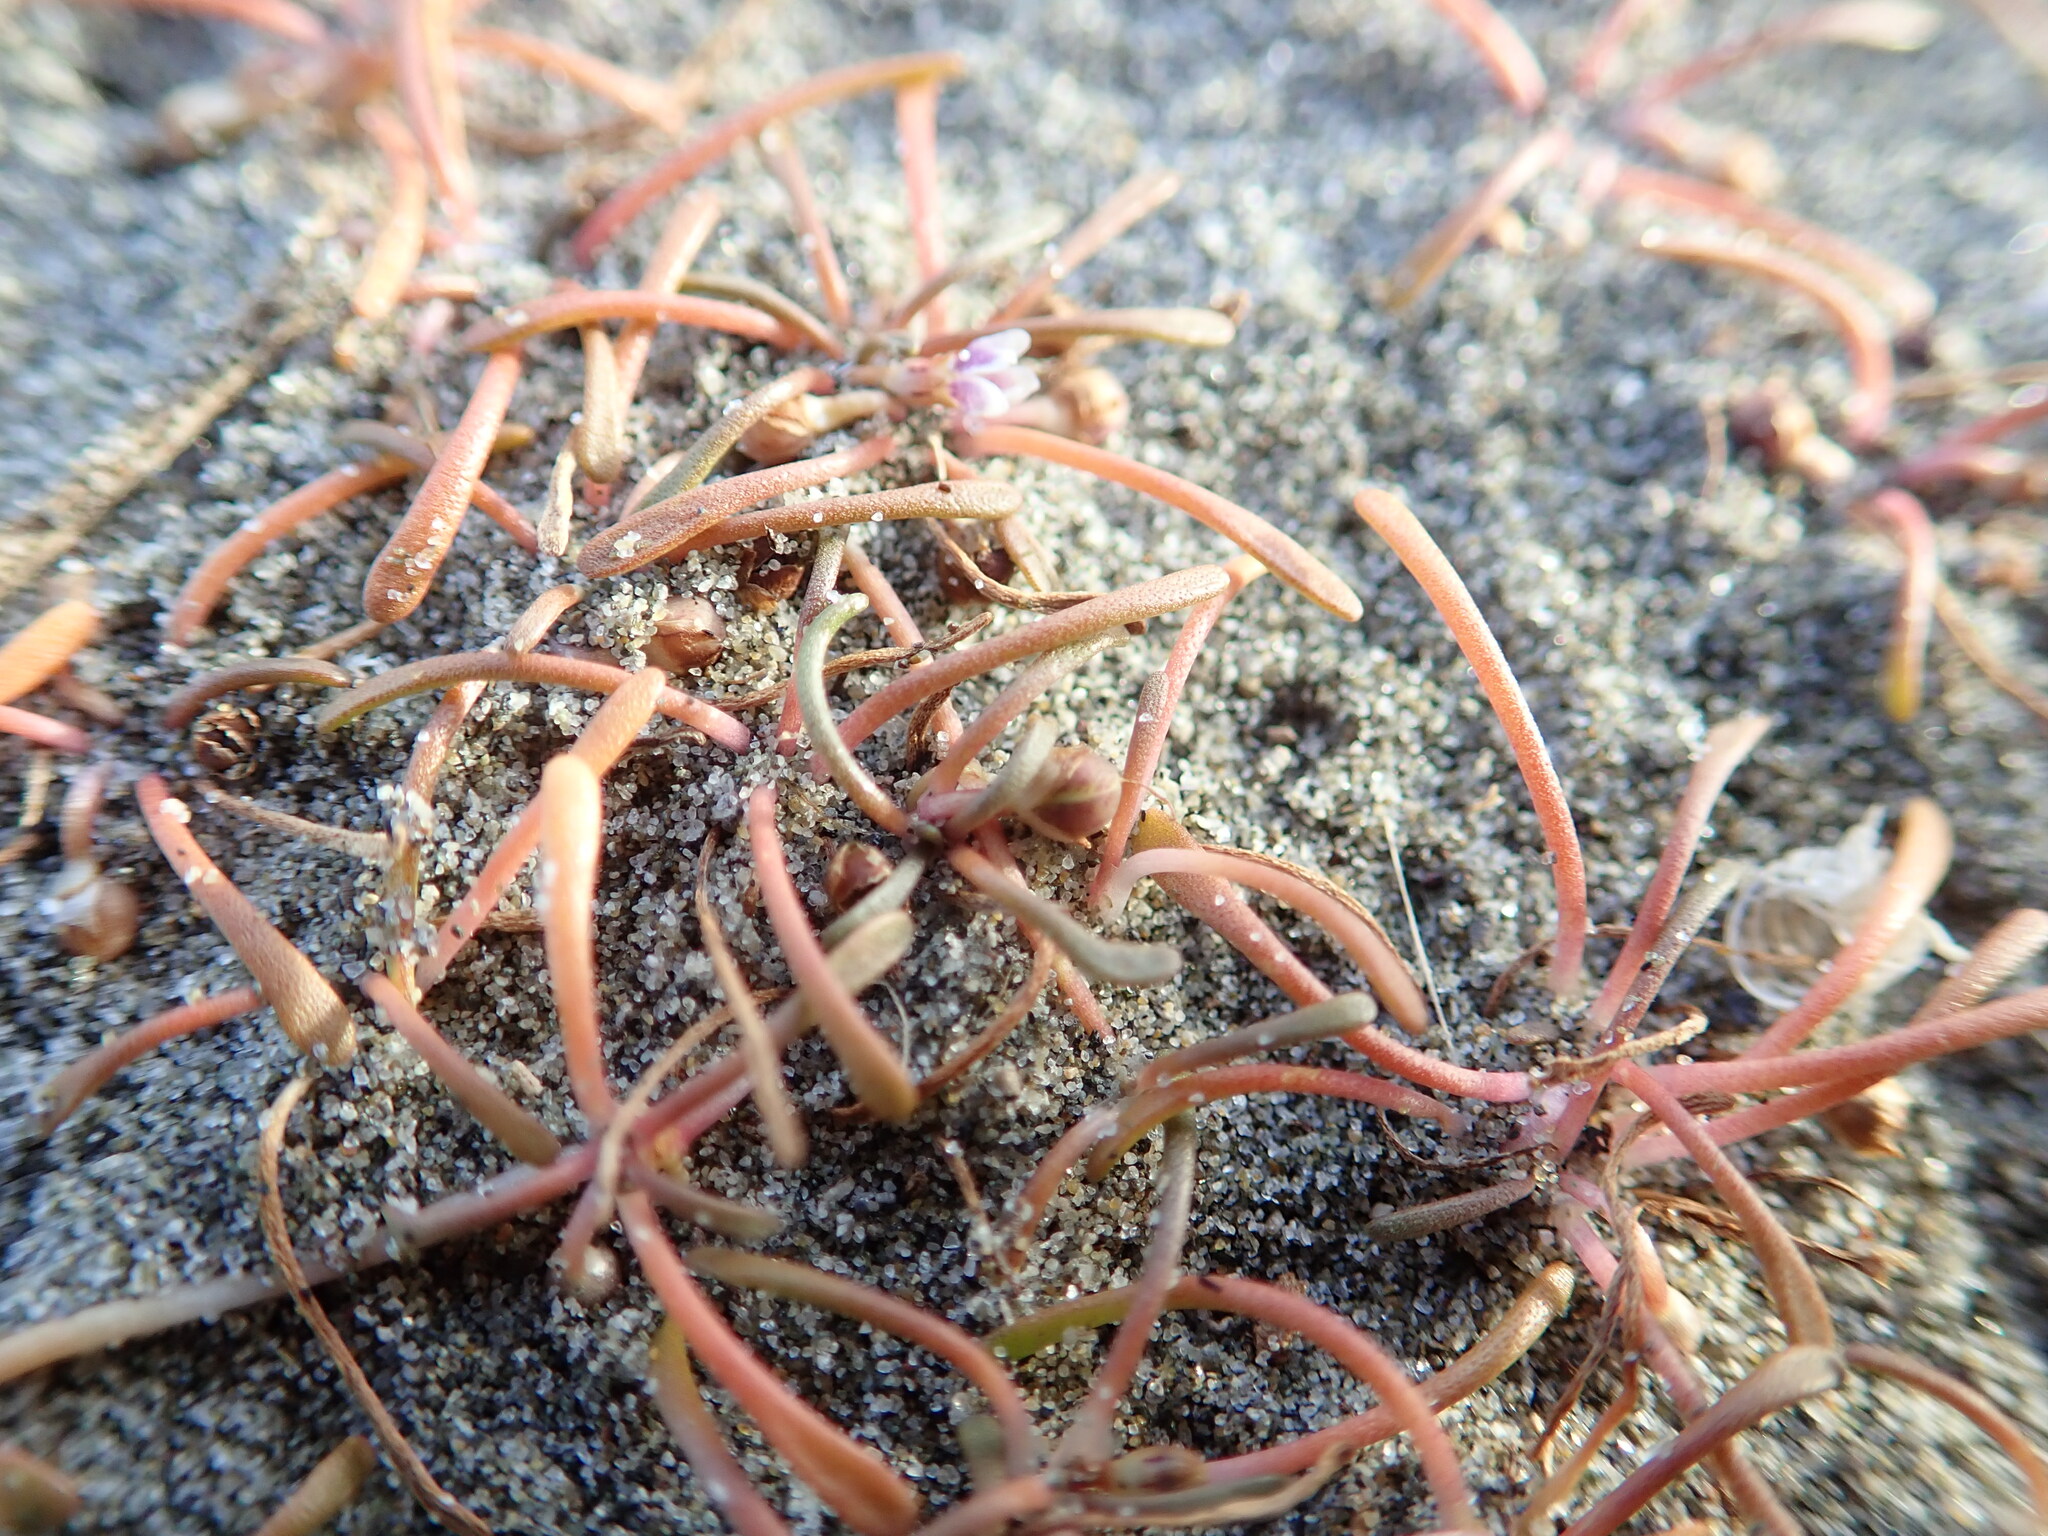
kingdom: Plantae
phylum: Tracheophyta
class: Magnoliopsida
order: Lamiales
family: Scrophulariaceae
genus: Limosella
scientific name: Limosella australis
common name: Welsh mudwort
